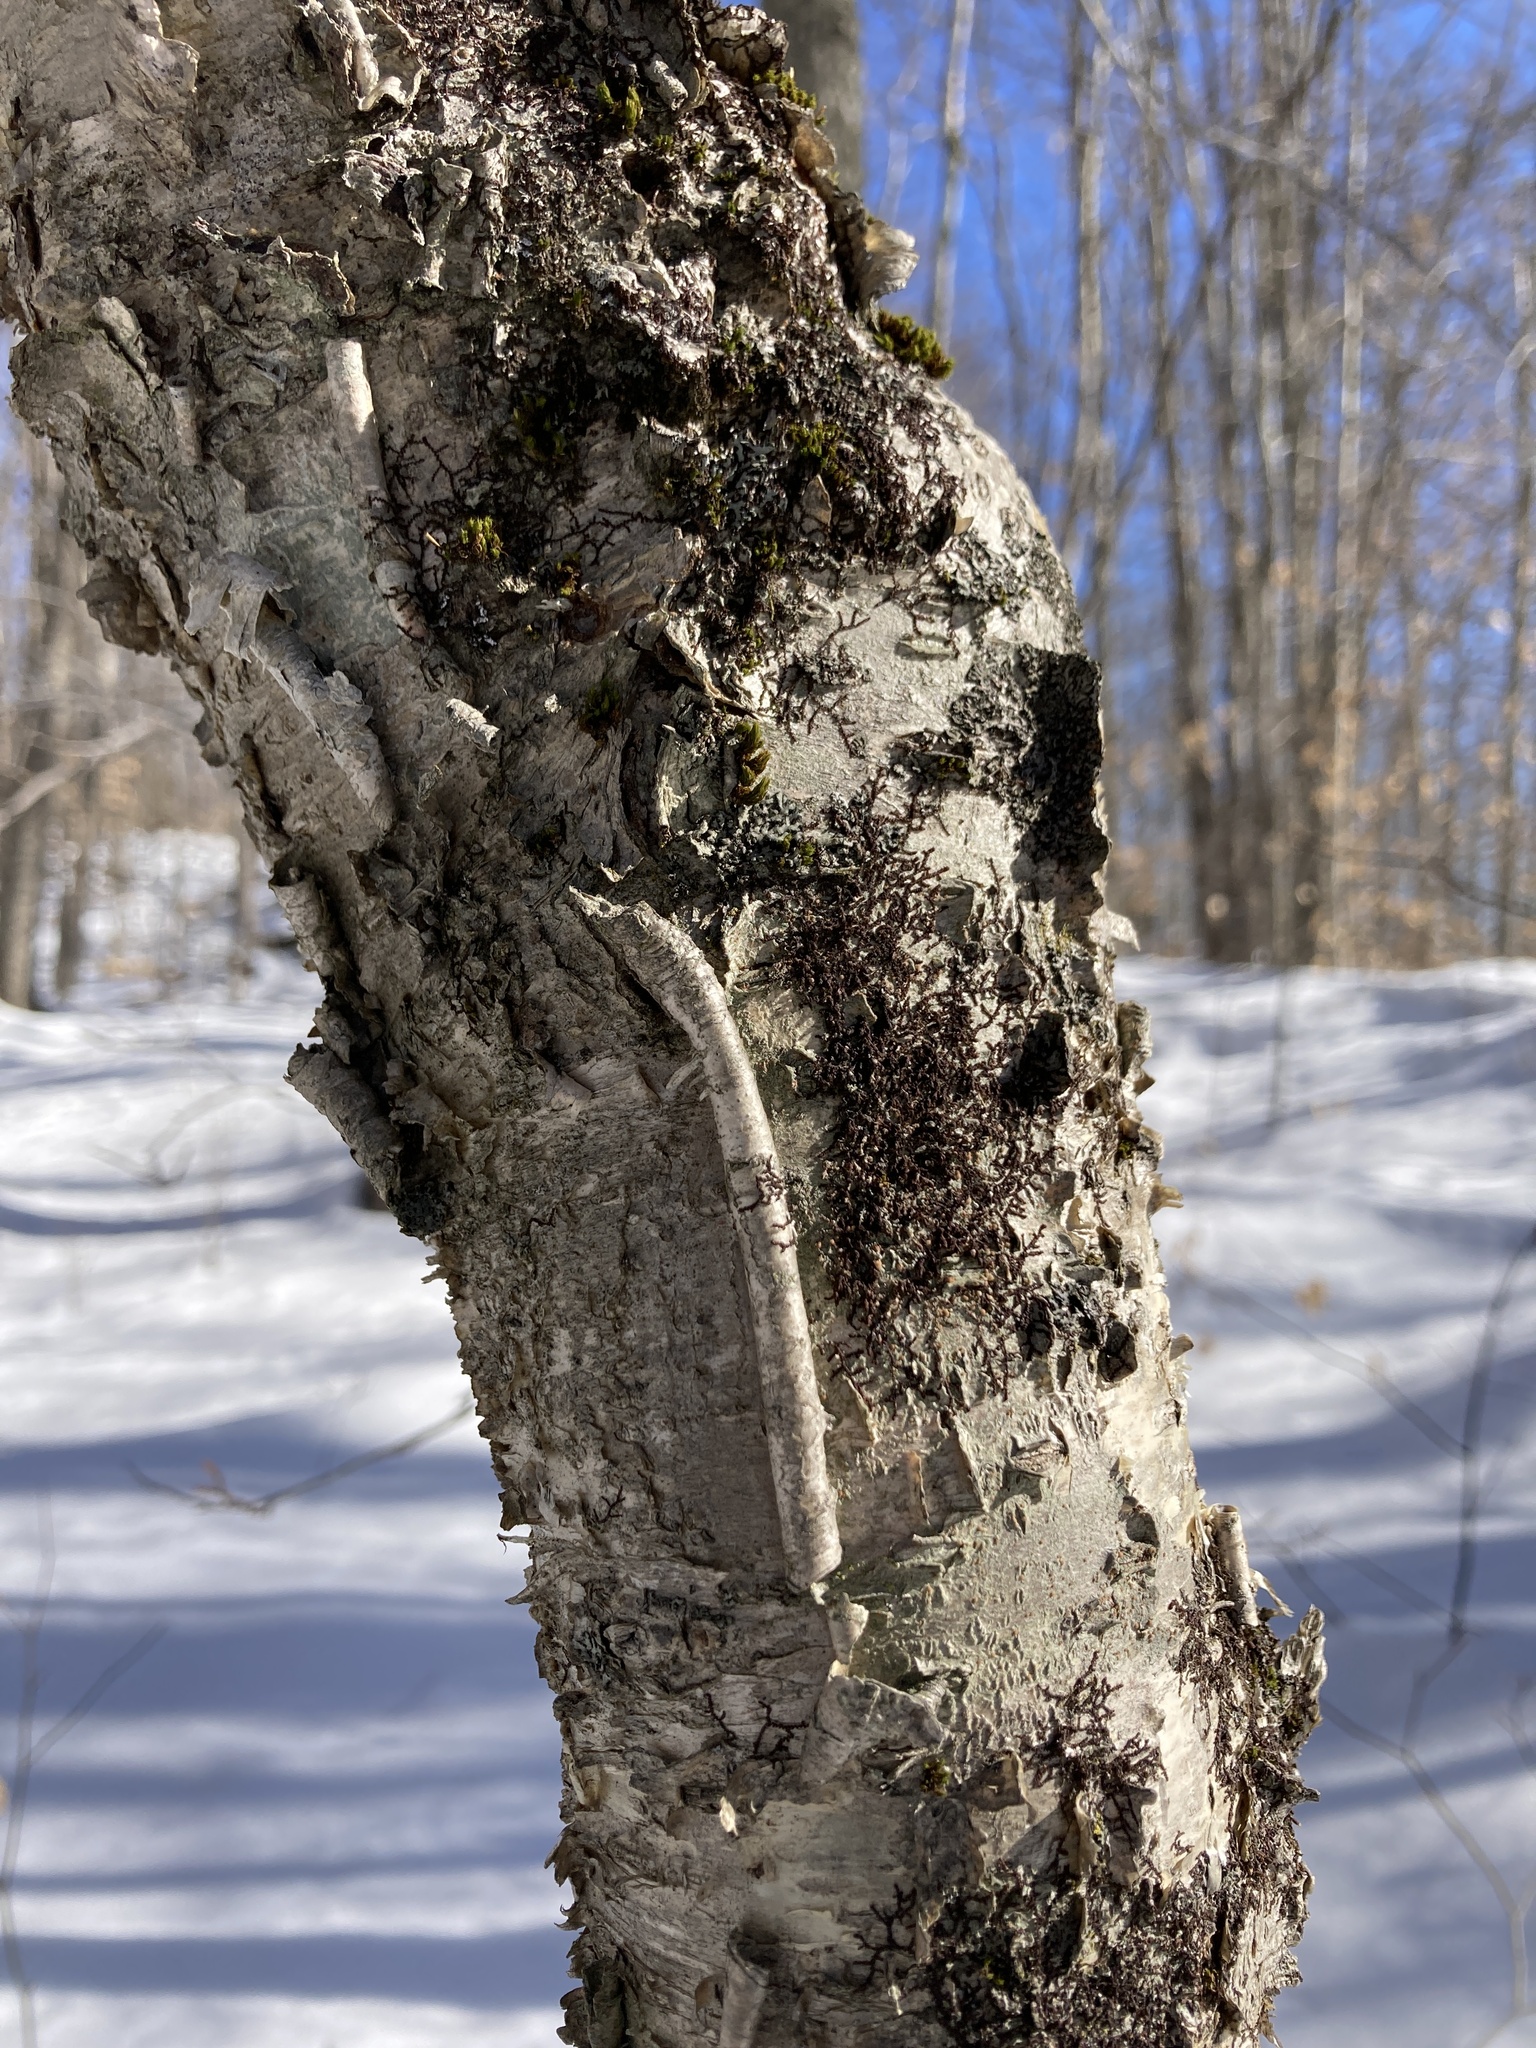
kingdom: Plantae
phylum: Tracheophyta
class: Magnoliopsida
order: Fagales
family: Betulaceae
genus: Betula
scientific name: Betula alleghaniensis
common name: Yellow birch
